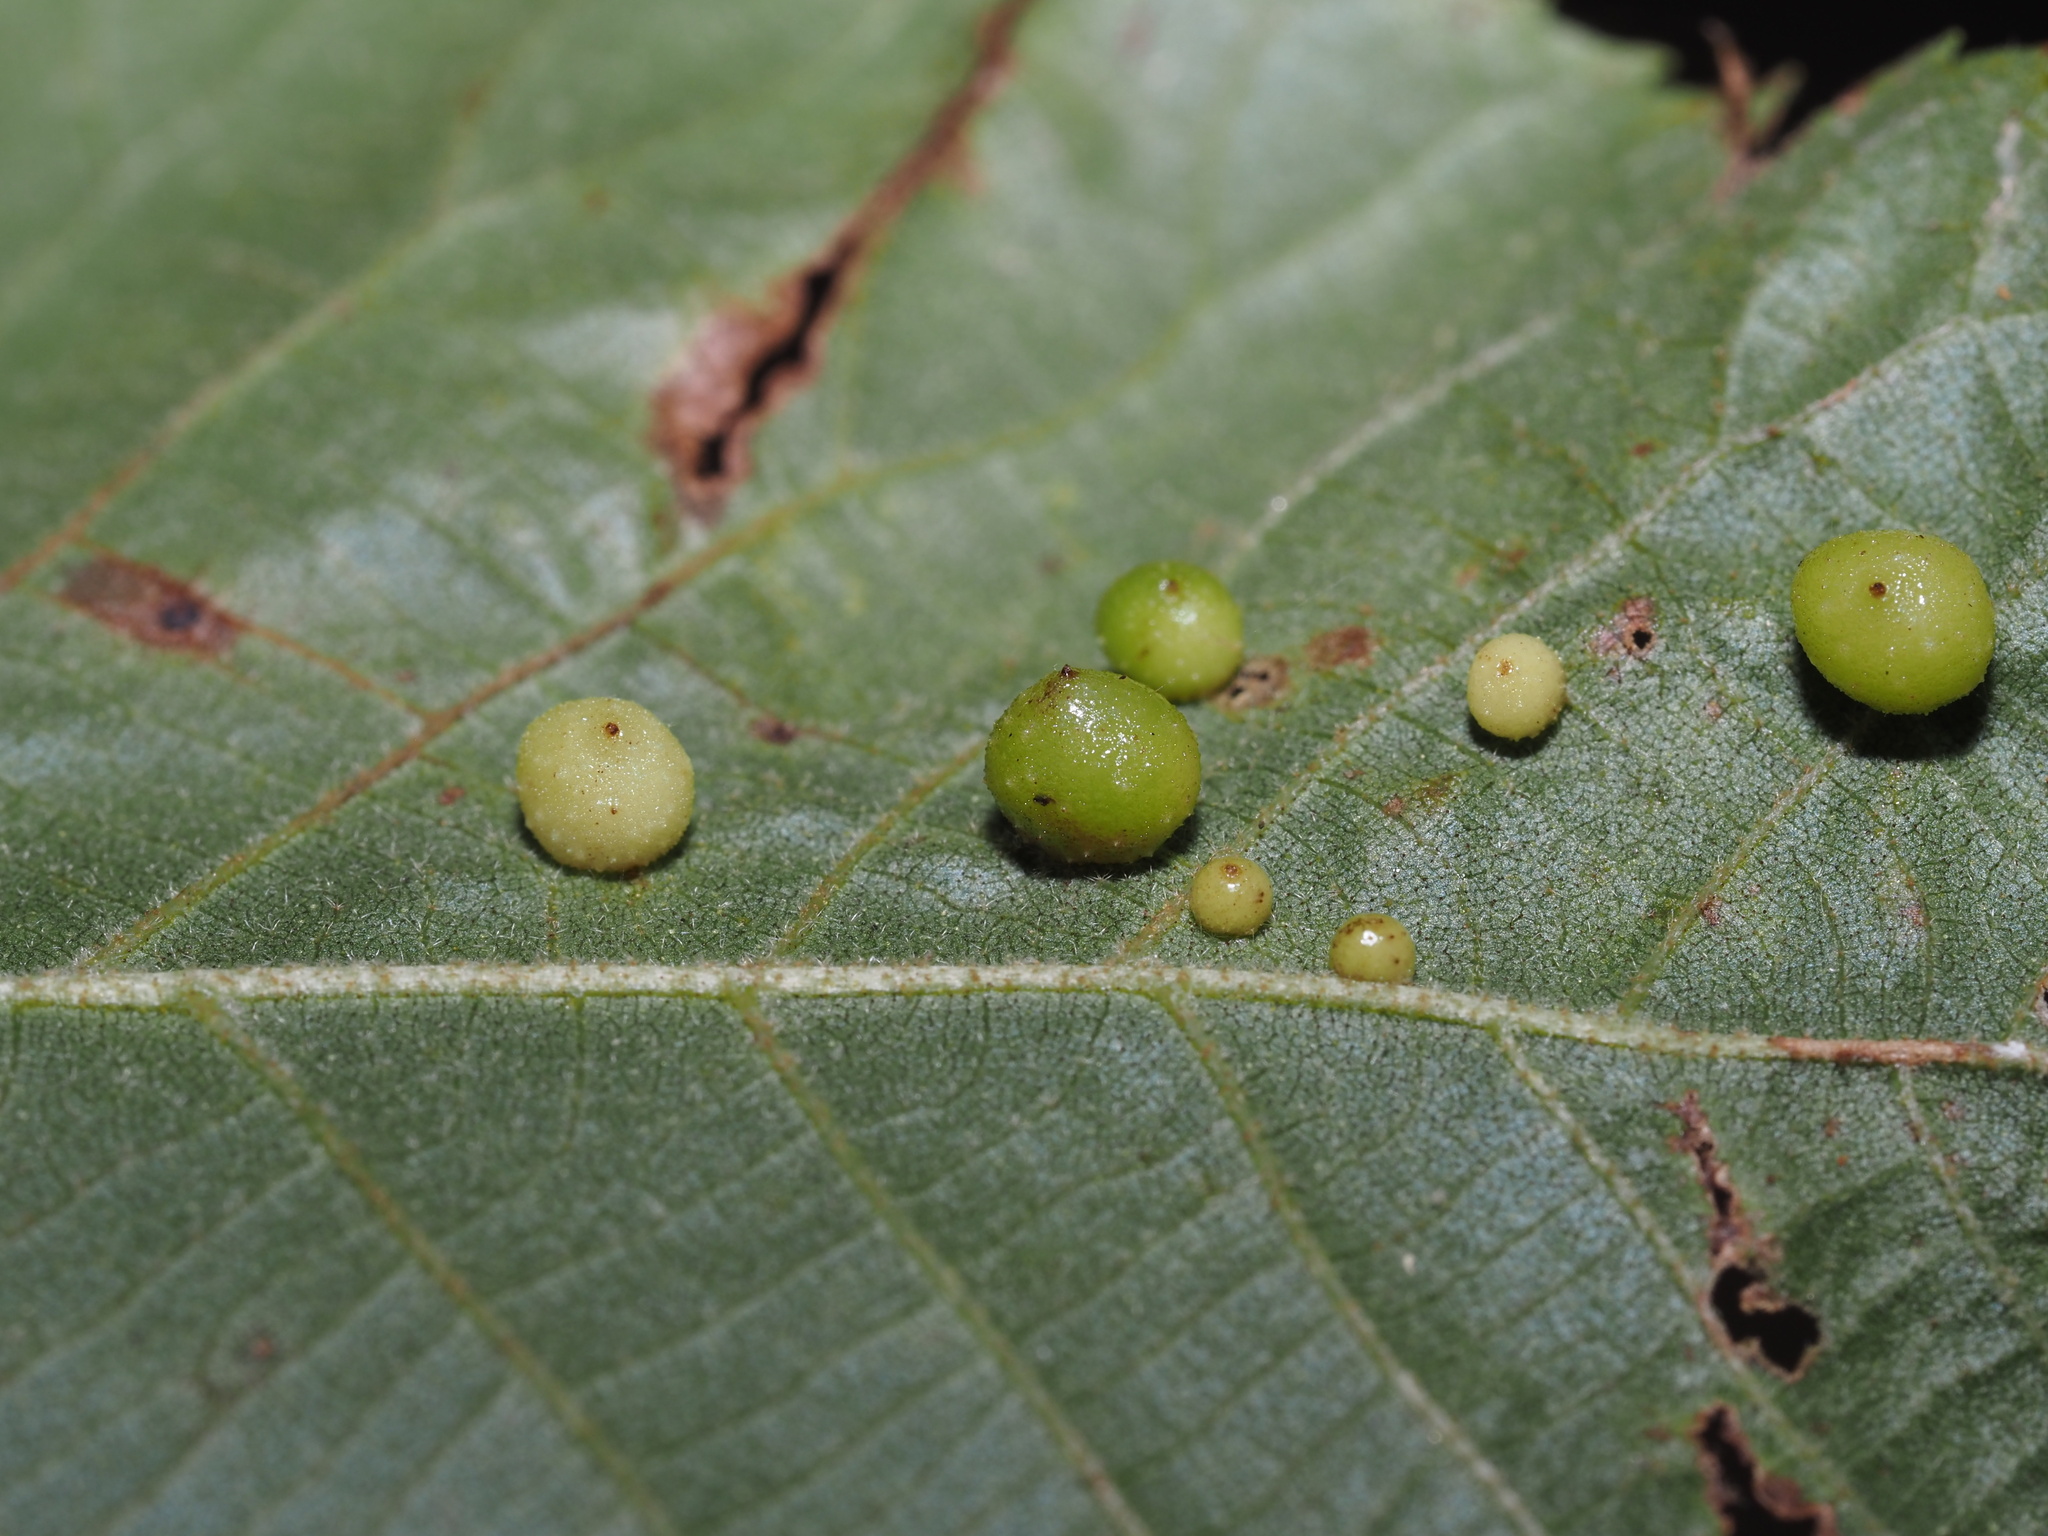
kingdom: Animalia
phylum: Arthropoda
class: Insecta
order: Diptera
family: Cecidomyiidae
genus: Caryomyia
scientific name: Caryomyia tuberculata
